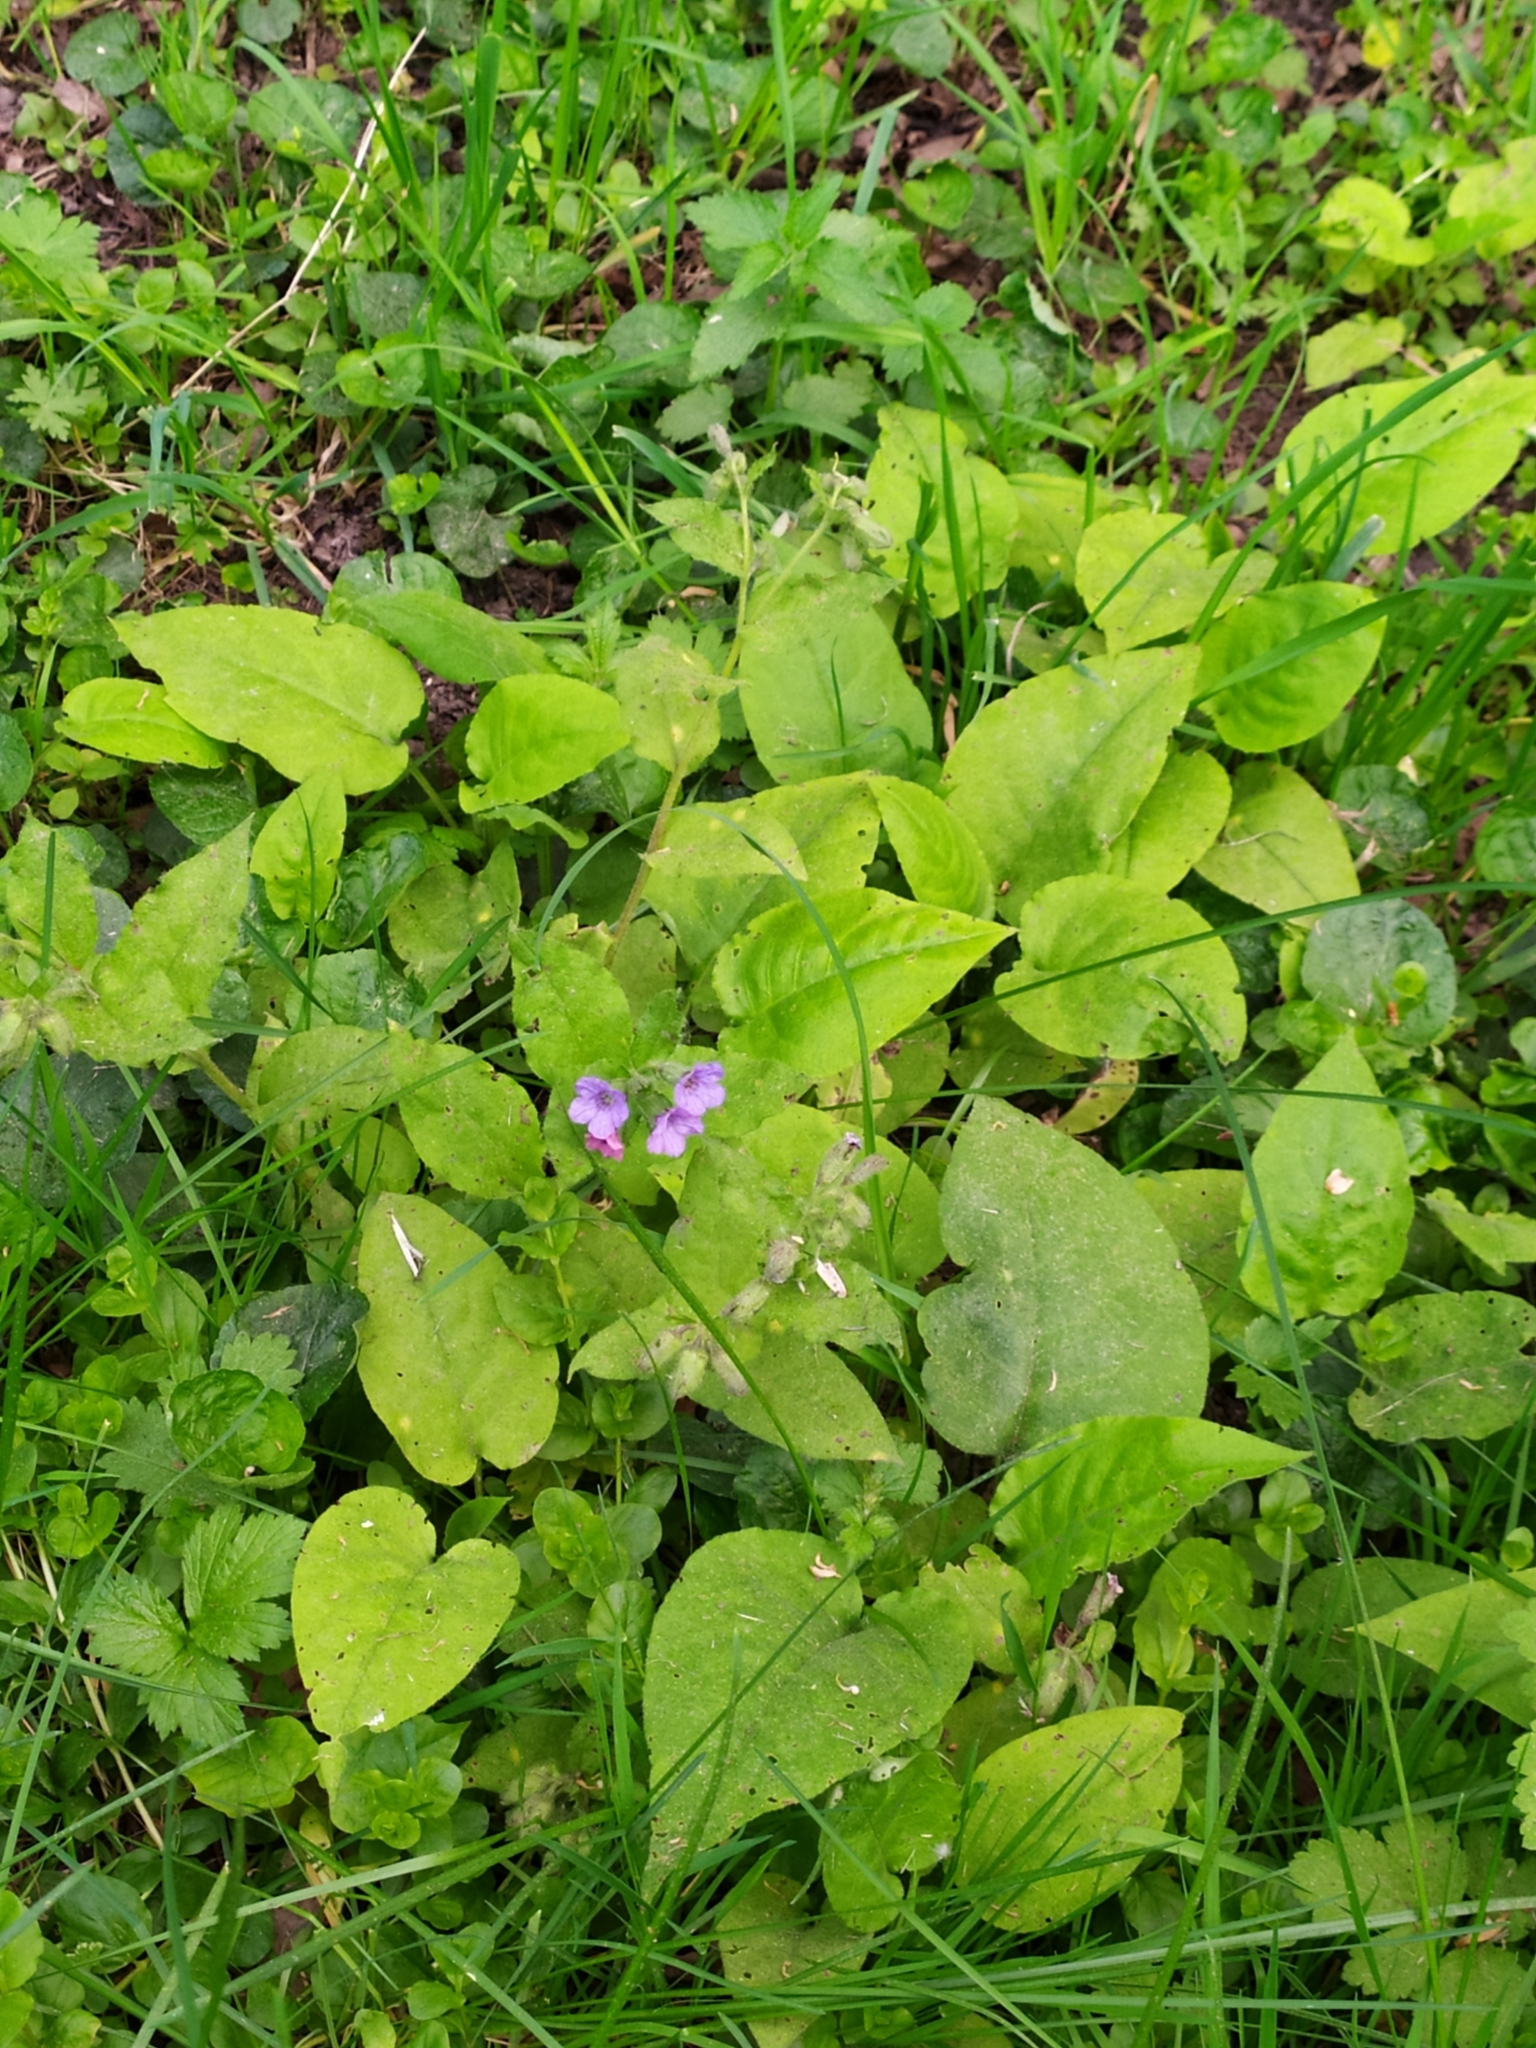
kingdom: Plantae
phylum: Tracheophyta
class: Magnoliopsida
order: Boraginales
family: Boraginaceae
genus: Pulmonaria
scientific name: Pulmonaria obscura
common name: Suffolk lungwort
